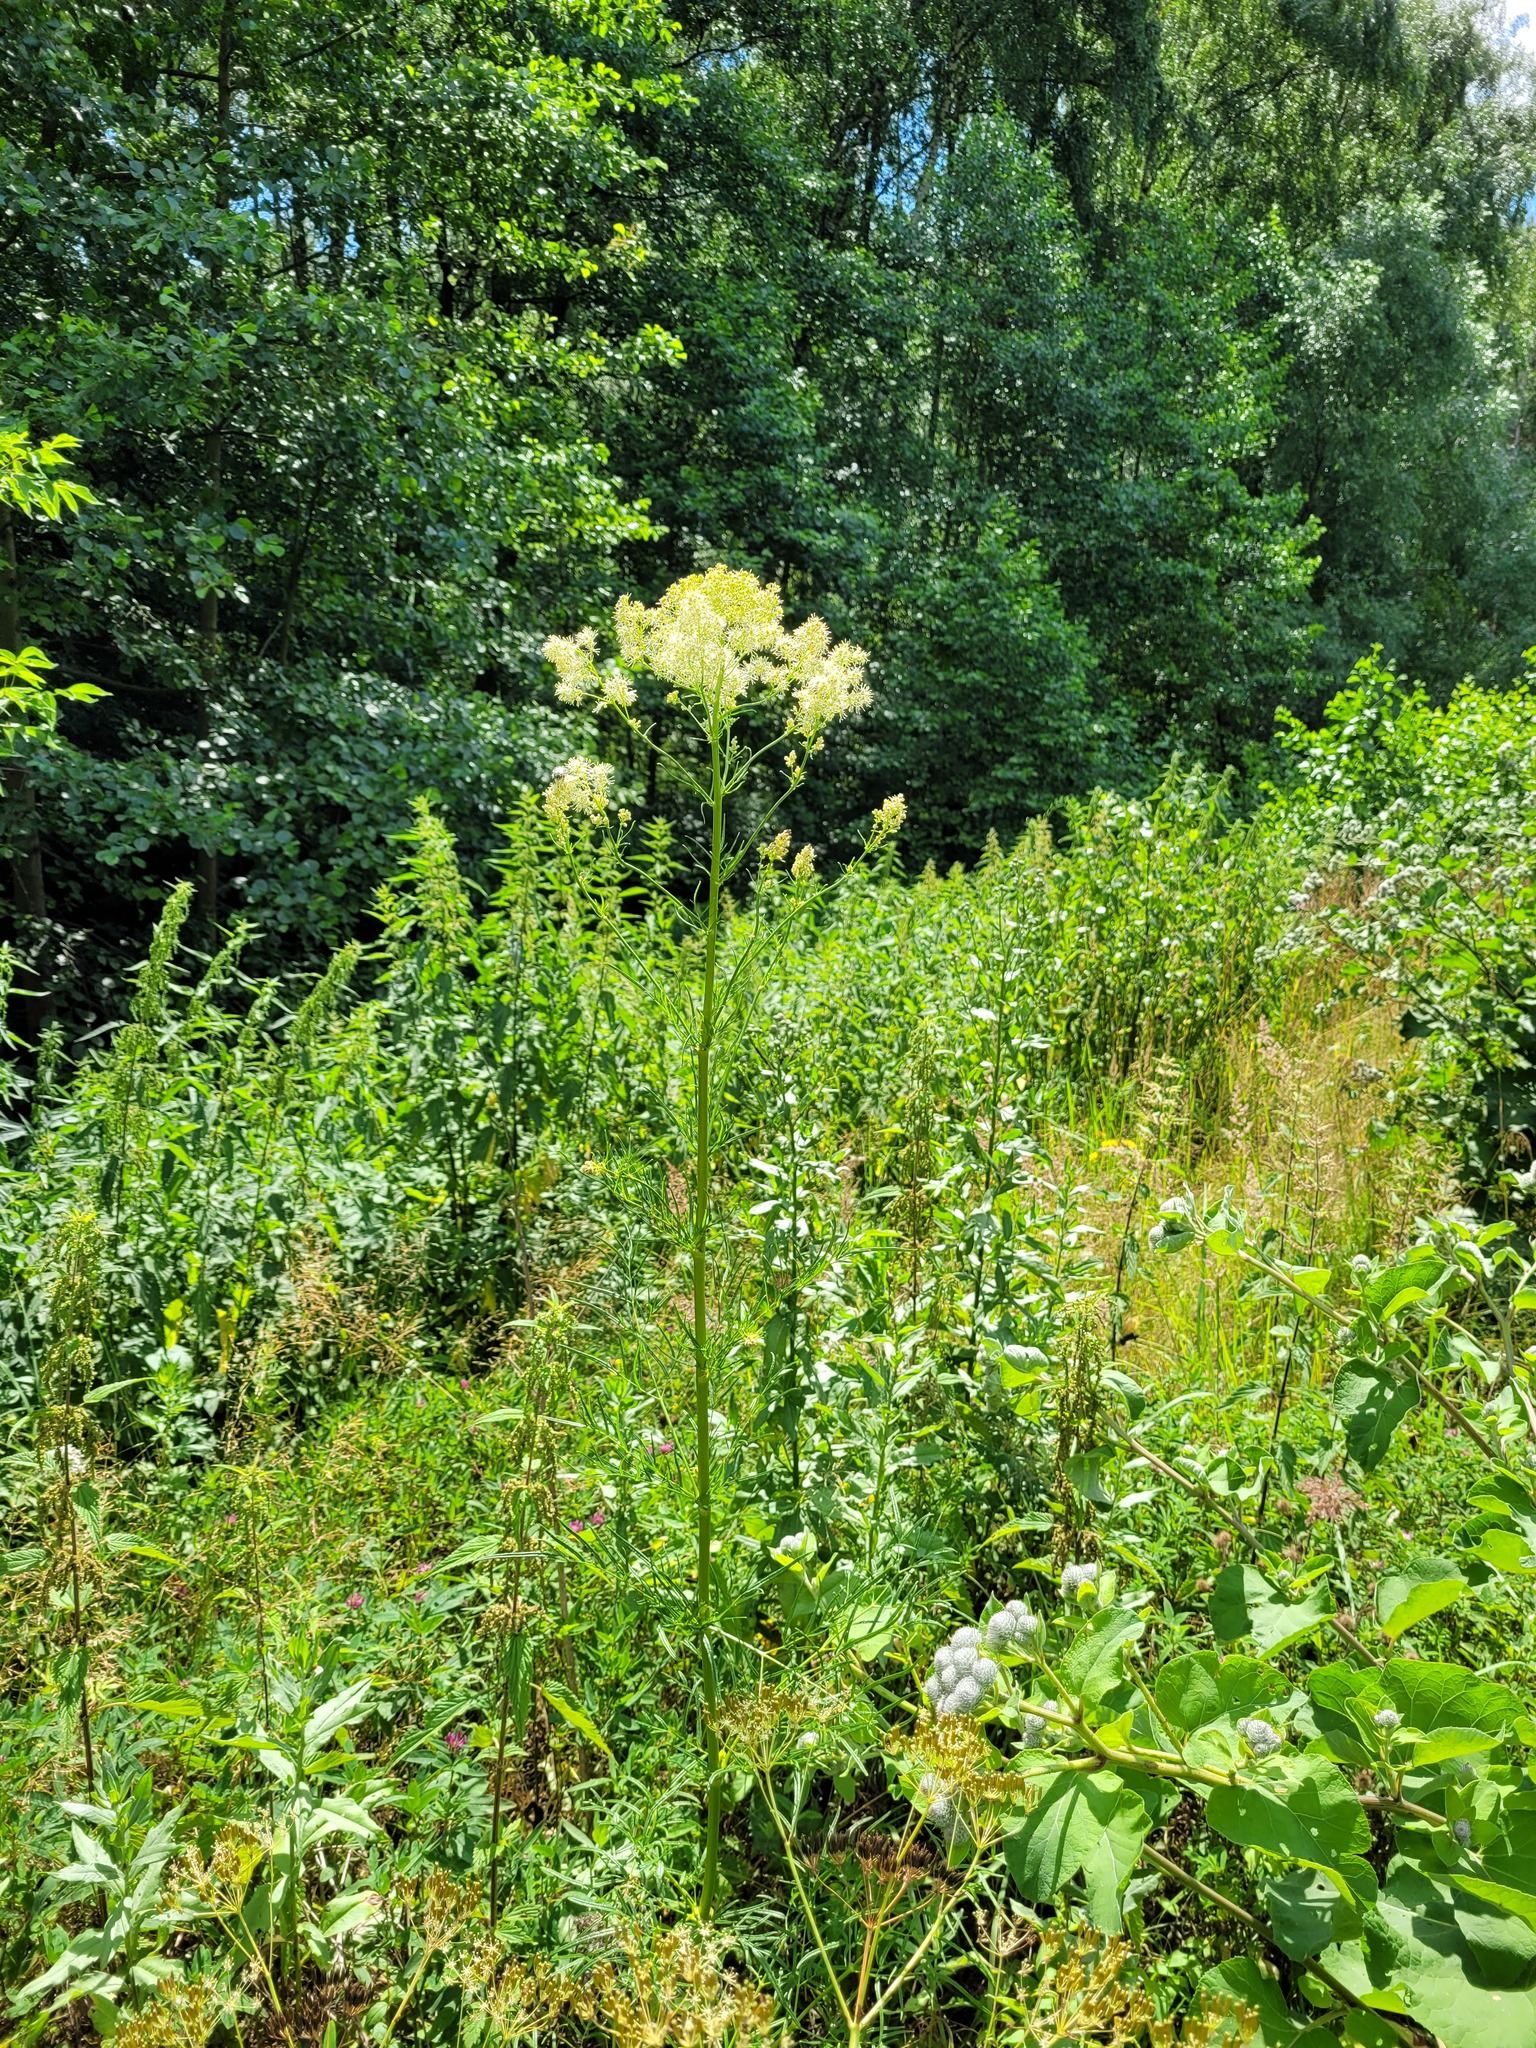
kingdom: Plantae
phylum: Tracheophyta
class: Magnoliopsida
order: Ranunculales
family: Ranunculaceae
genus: Thalictrum
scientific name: Thalictrum lucidum
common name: Shining meadow-rue
